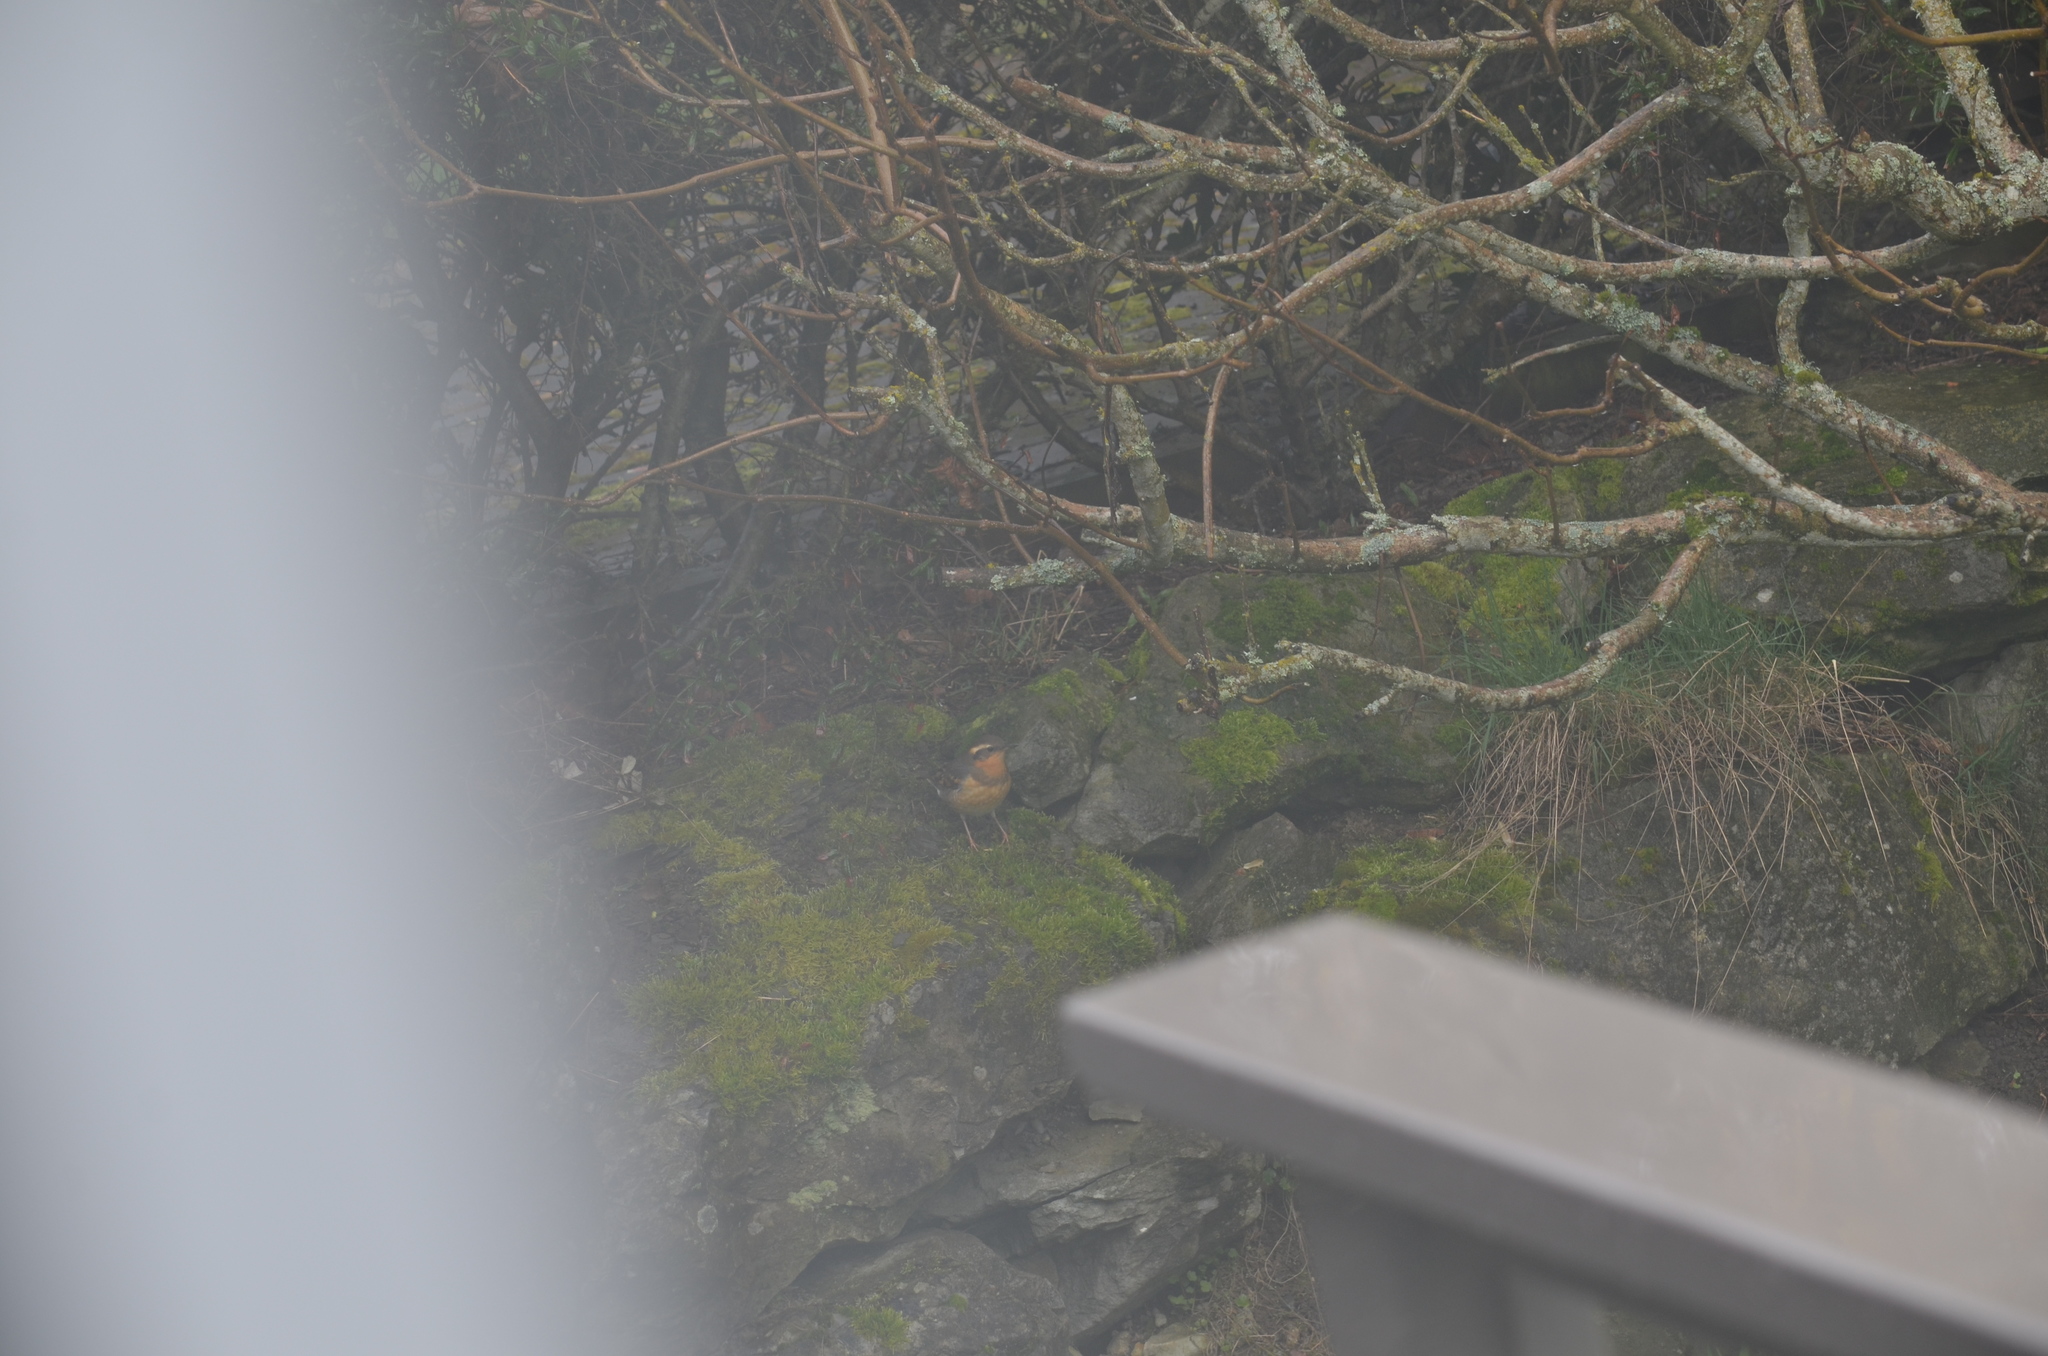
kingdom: Animalia
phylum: Chordata
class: Aves
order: Passeriformes
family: Turdidae
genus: Ixoreus
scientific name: Ixoreus naevius
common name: Varied thrush
